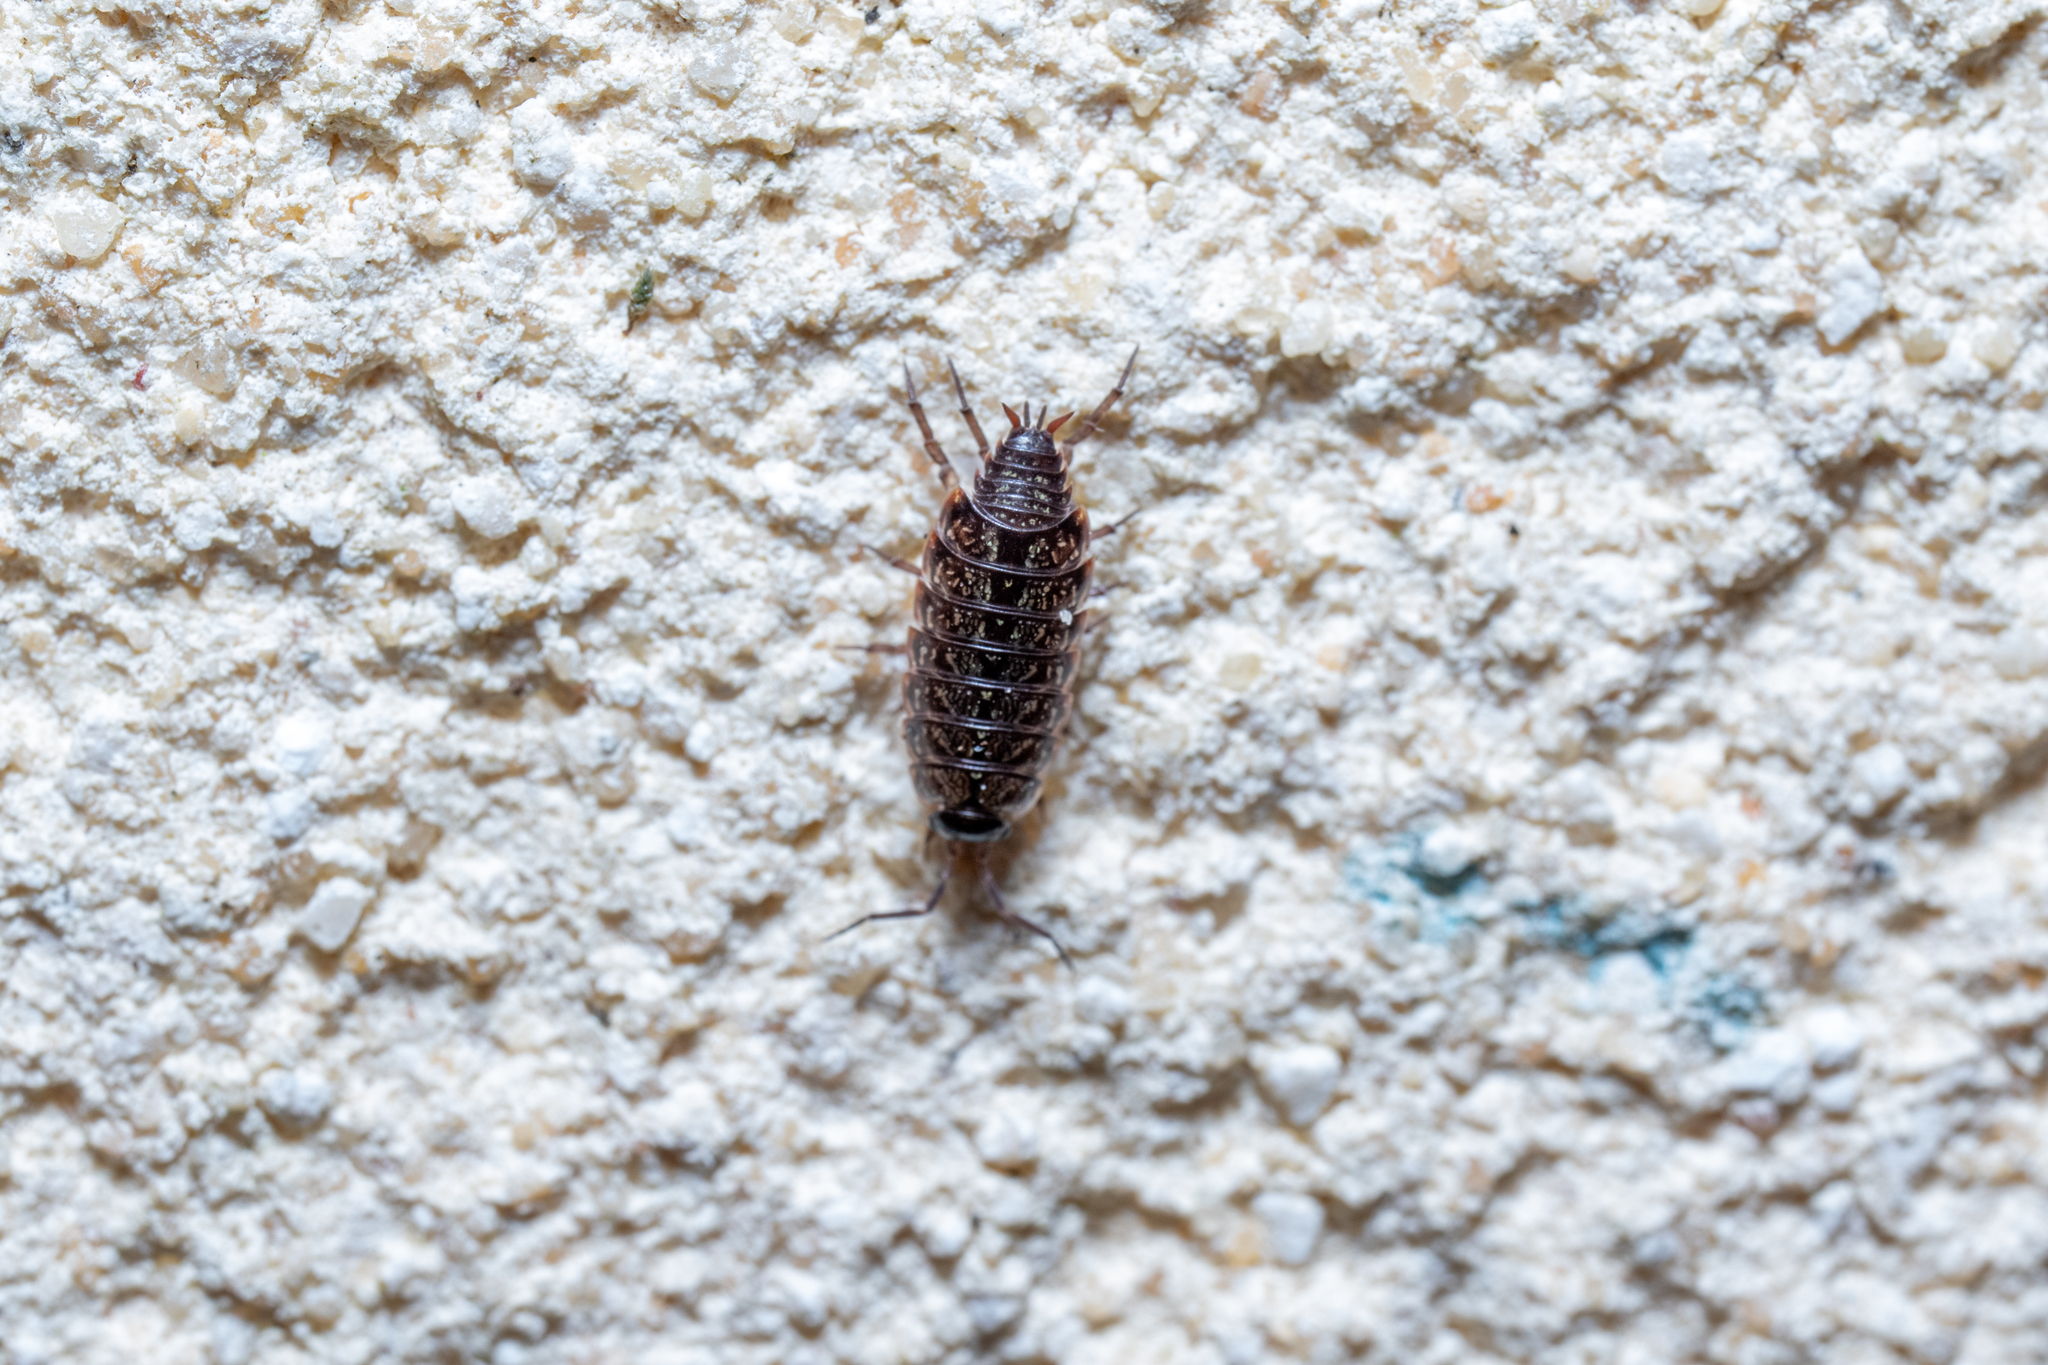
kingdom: Animalia
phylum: Arthropoda
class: Malacostraca
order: Isopoda
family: Philosciidae
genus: Philoscia
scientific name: Philoscia muscorum
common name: Common striped woodlouse
